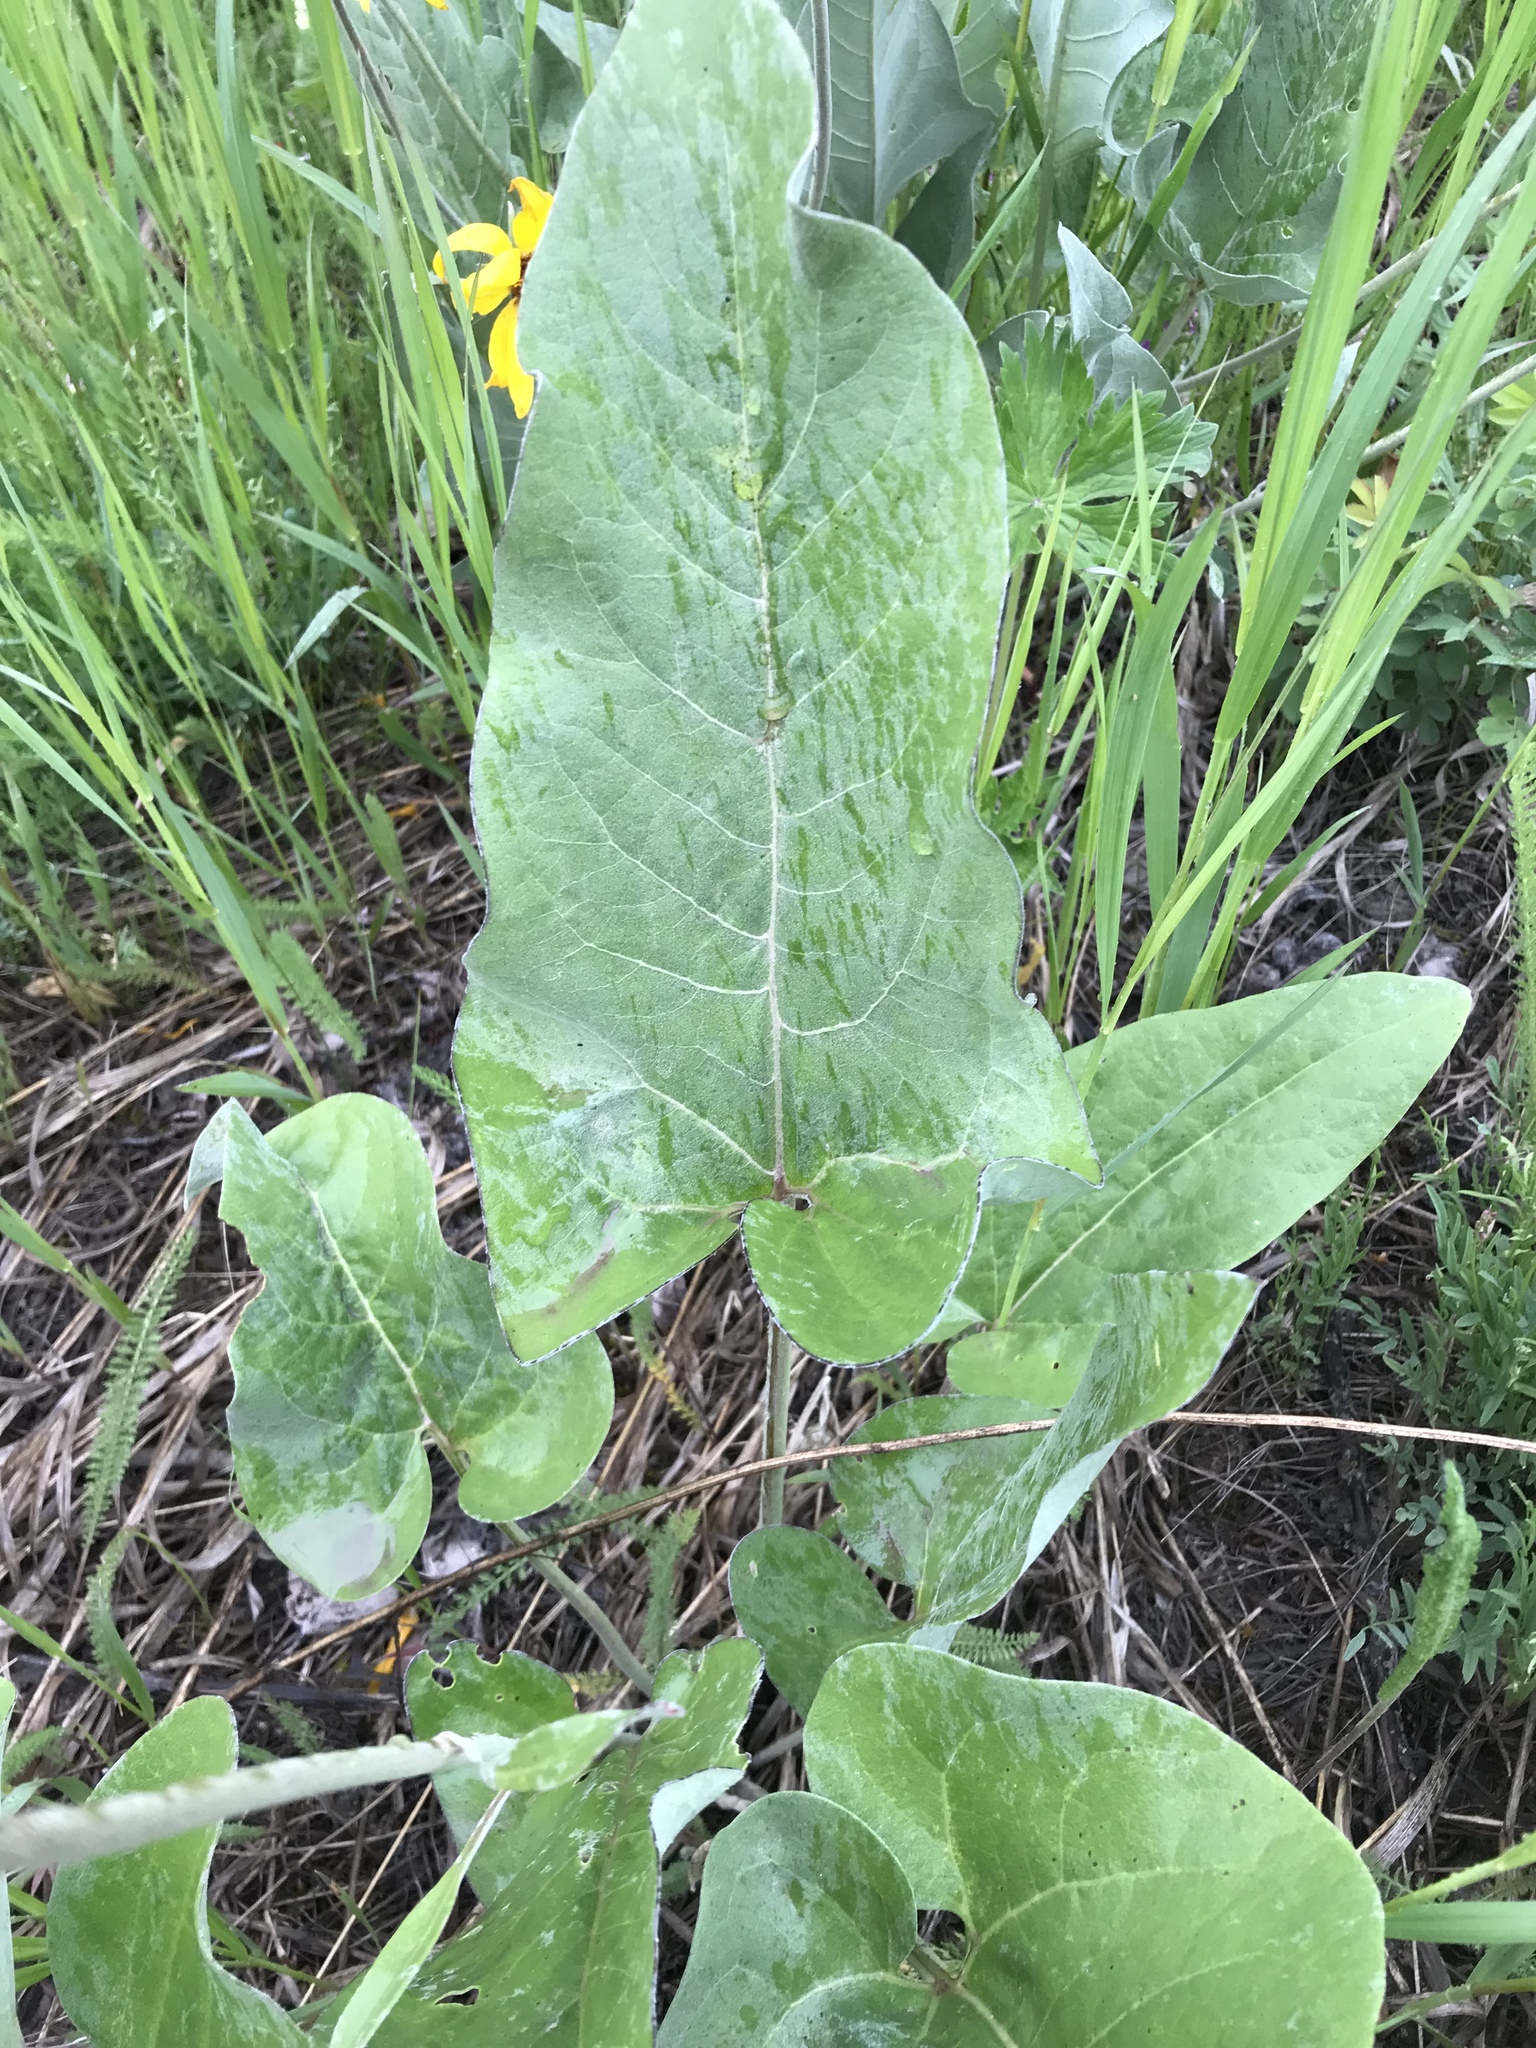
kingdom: Plantae
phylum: Tracheophyta
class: Magnoliopsida
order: Asterales
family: Asteraceae
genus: Wyethia
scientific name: Wyethia sagittata
